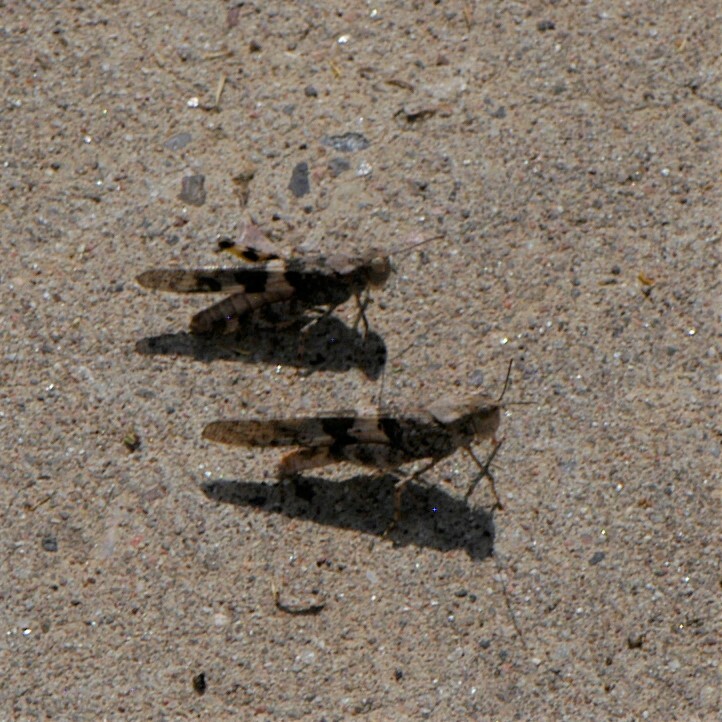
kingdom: Animalia
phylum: Arthropoda
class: Insecta
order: Orthoptera
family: Acrididae
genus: Trimerotropis
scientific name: Trimerotropis pallidipennis
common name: Pallid-winged grasshopper
